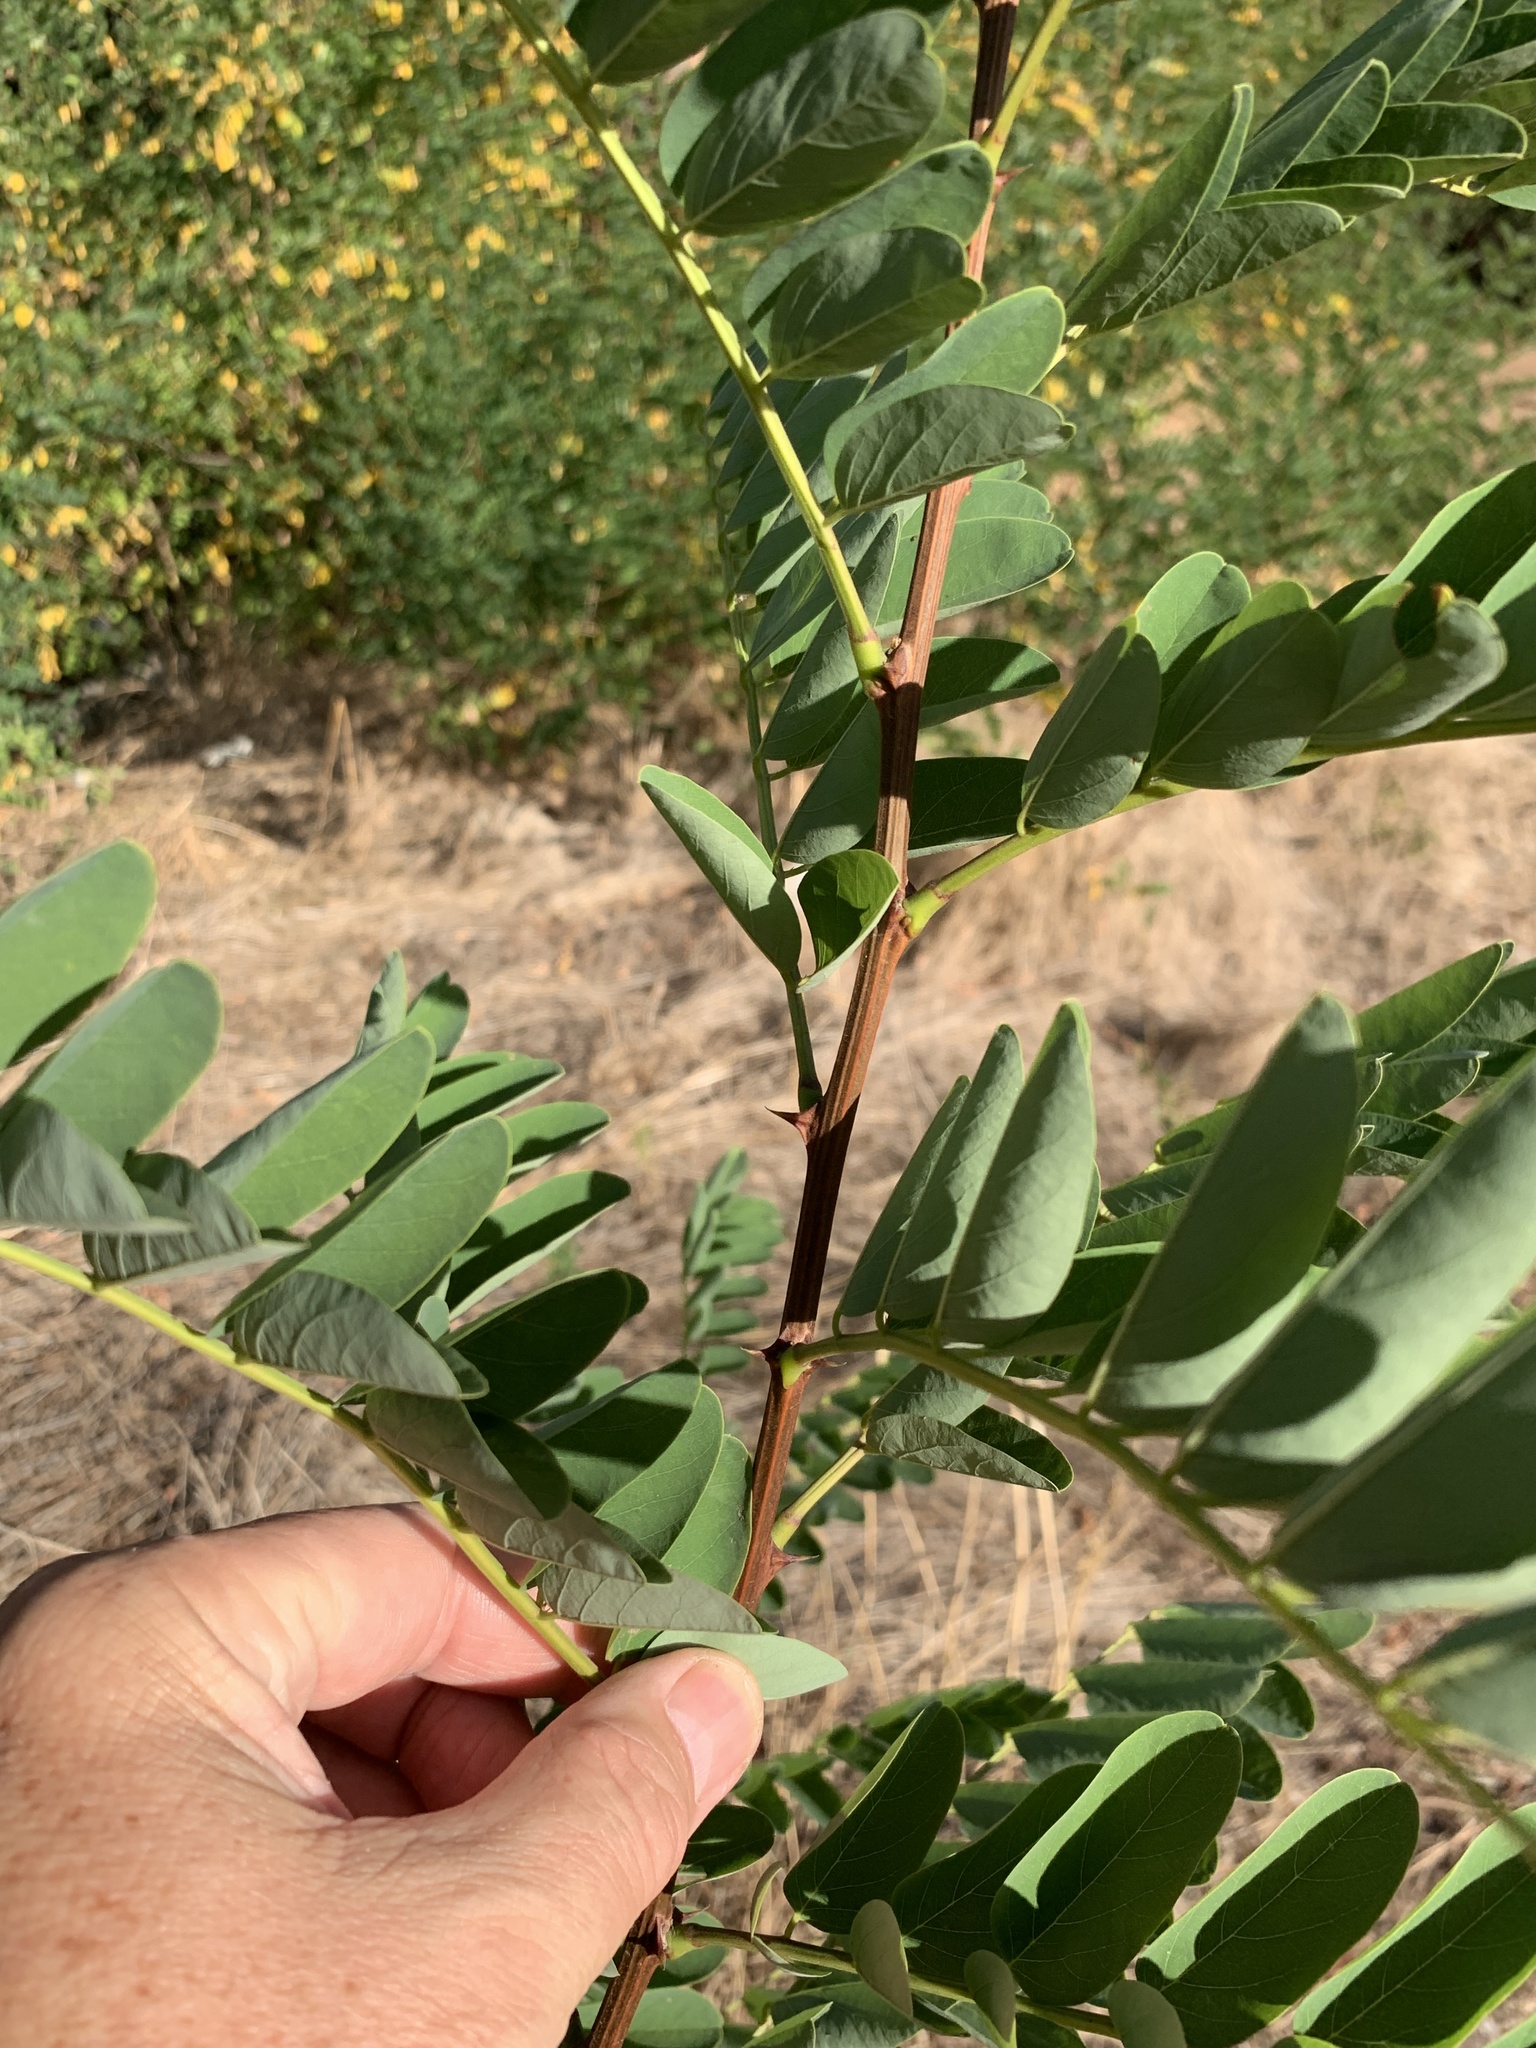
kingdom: Plantae
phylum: Tracheophyta
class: Magnoliopsida
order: Fabales
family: Fabaceae
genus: Robinia
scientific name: Robinia pseudoacacia
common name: Black locust
